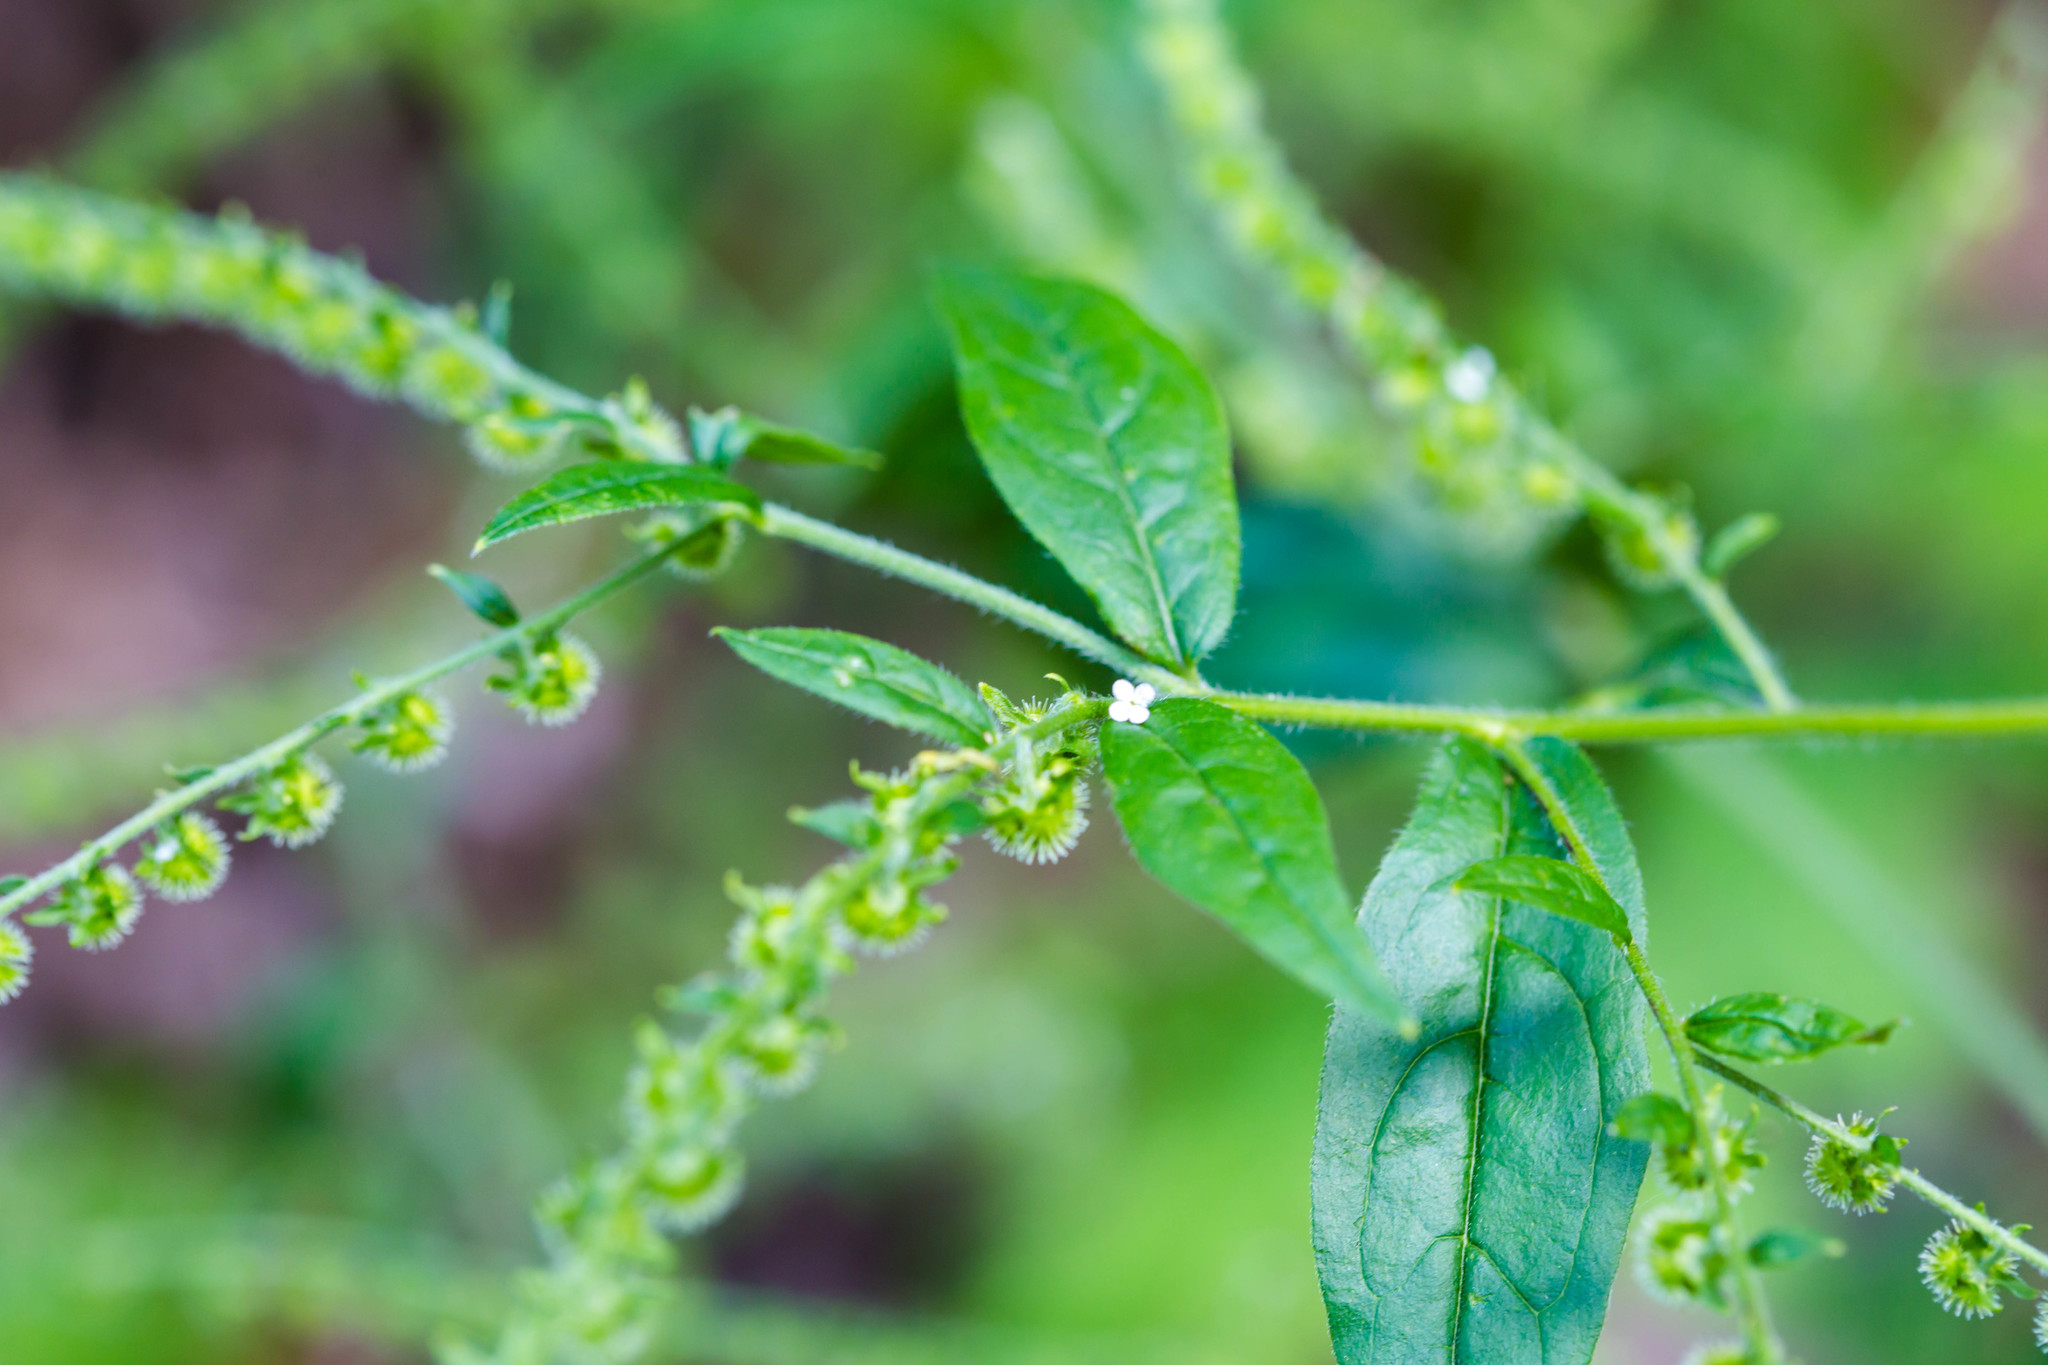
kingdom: Plantae
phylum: Tracheophyta
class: Magnoliopsida
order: Boraginales
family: Boraginaceae
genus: Hackelia
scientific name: Hackelia virginiana
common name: Beggar's-lice
